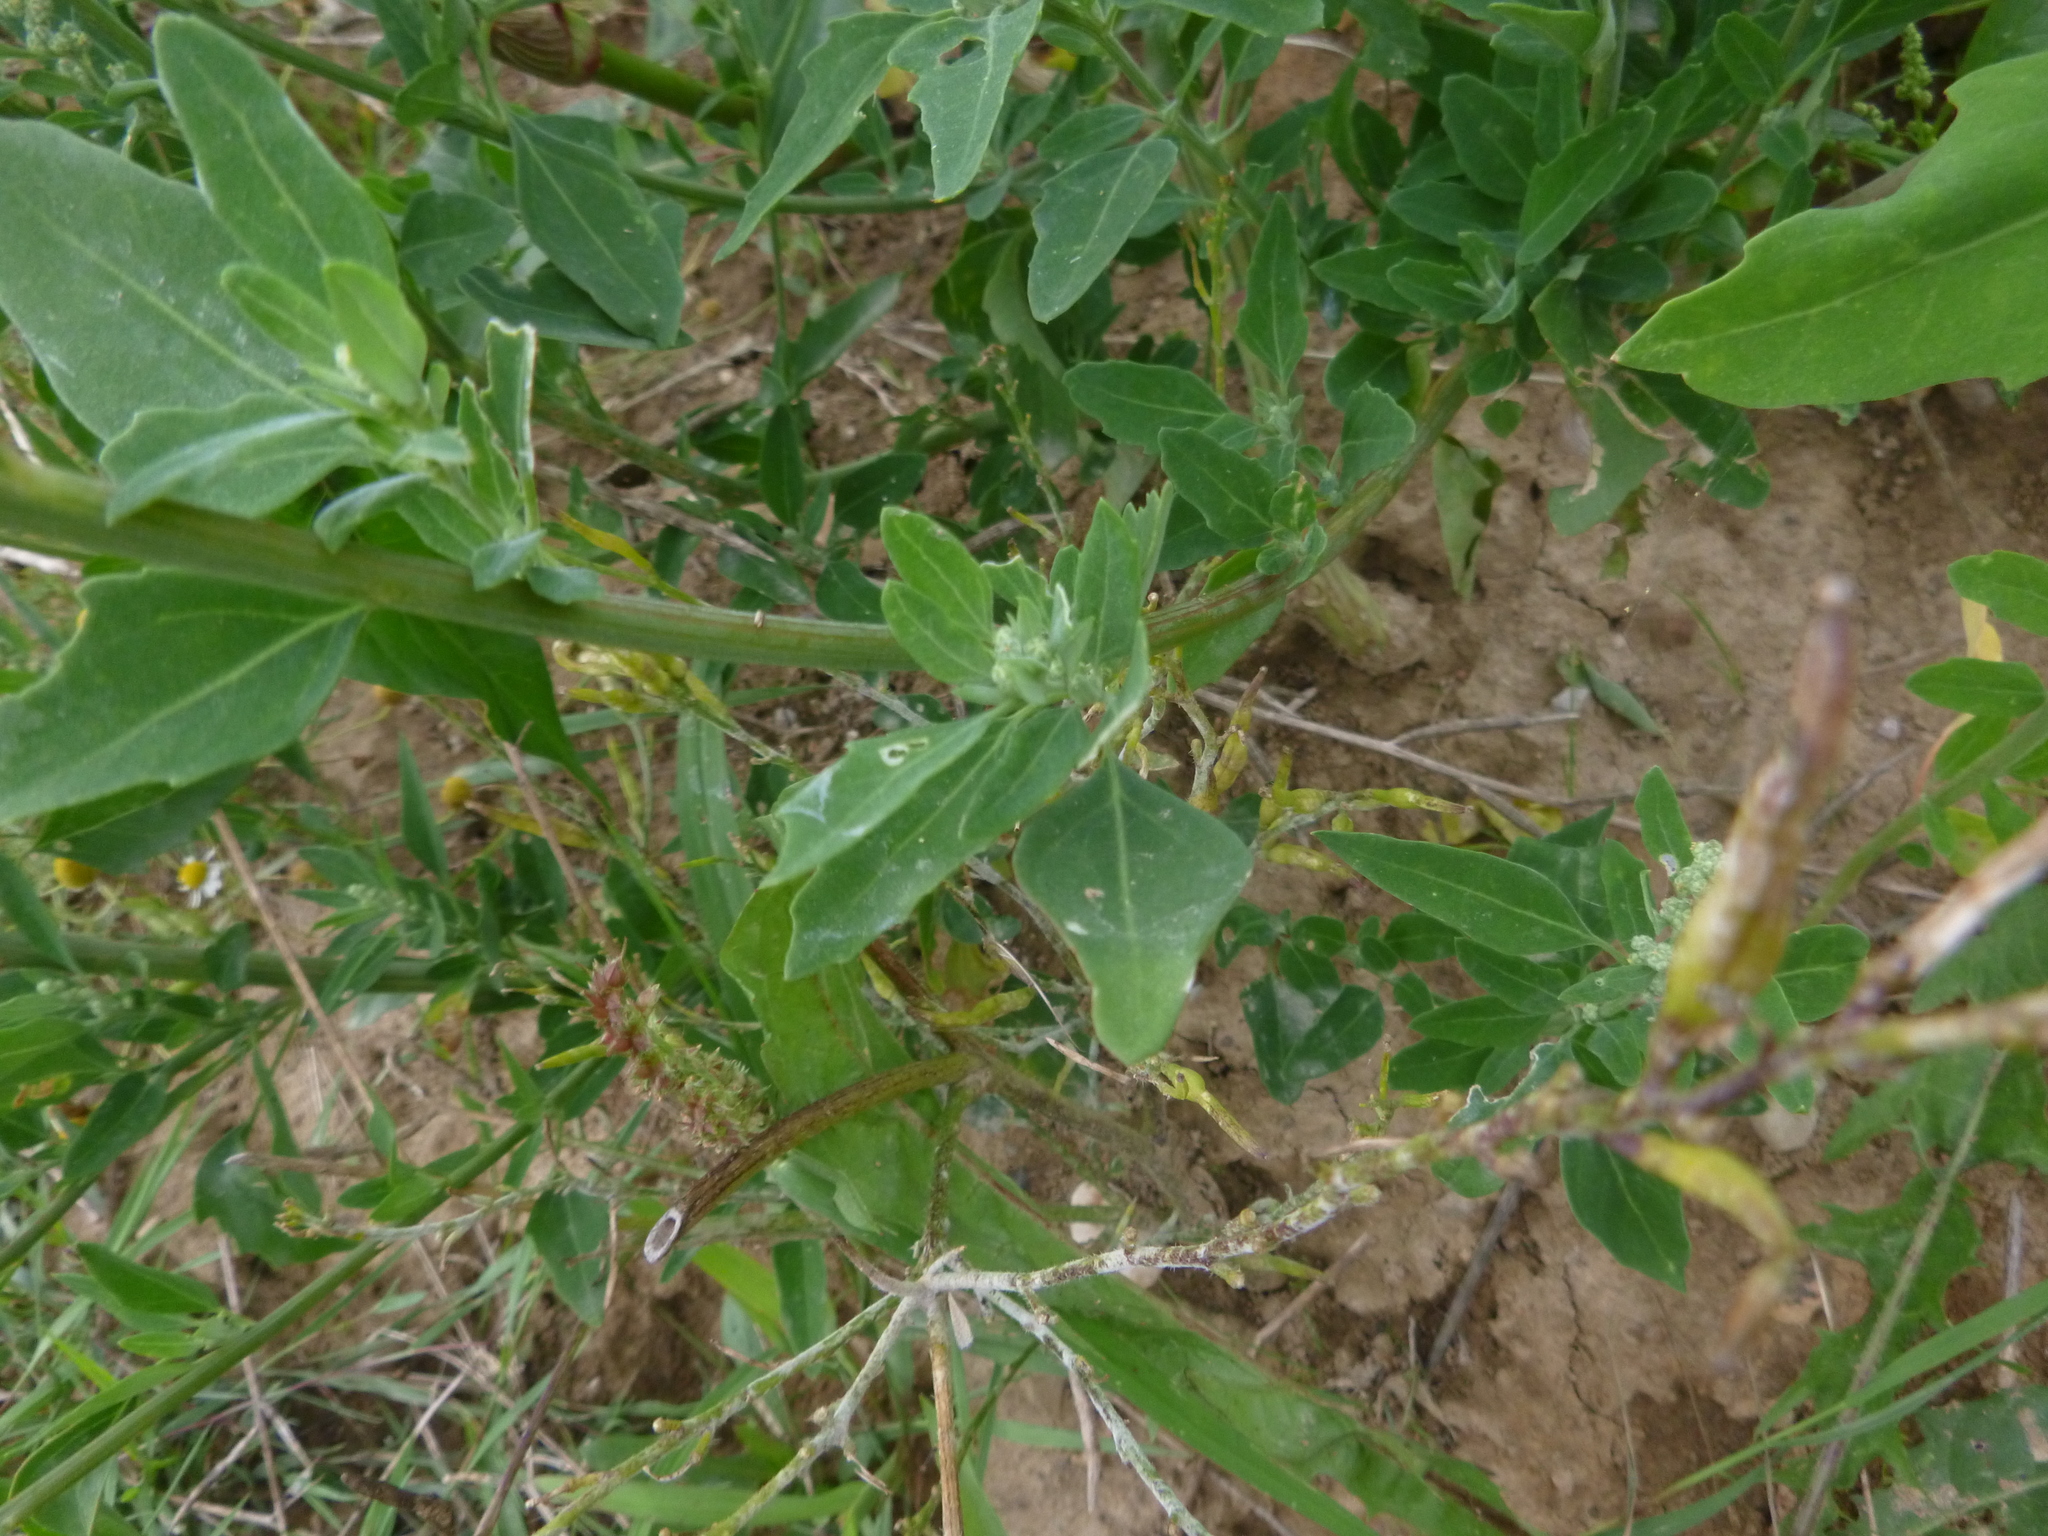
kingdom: Plantae
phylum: Tracheophyta
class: Magnoliopsida
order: Caryophyllales
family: Amaranthaceae
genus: Chenopodium
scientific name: Chenopodium album
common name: Fat-hen
